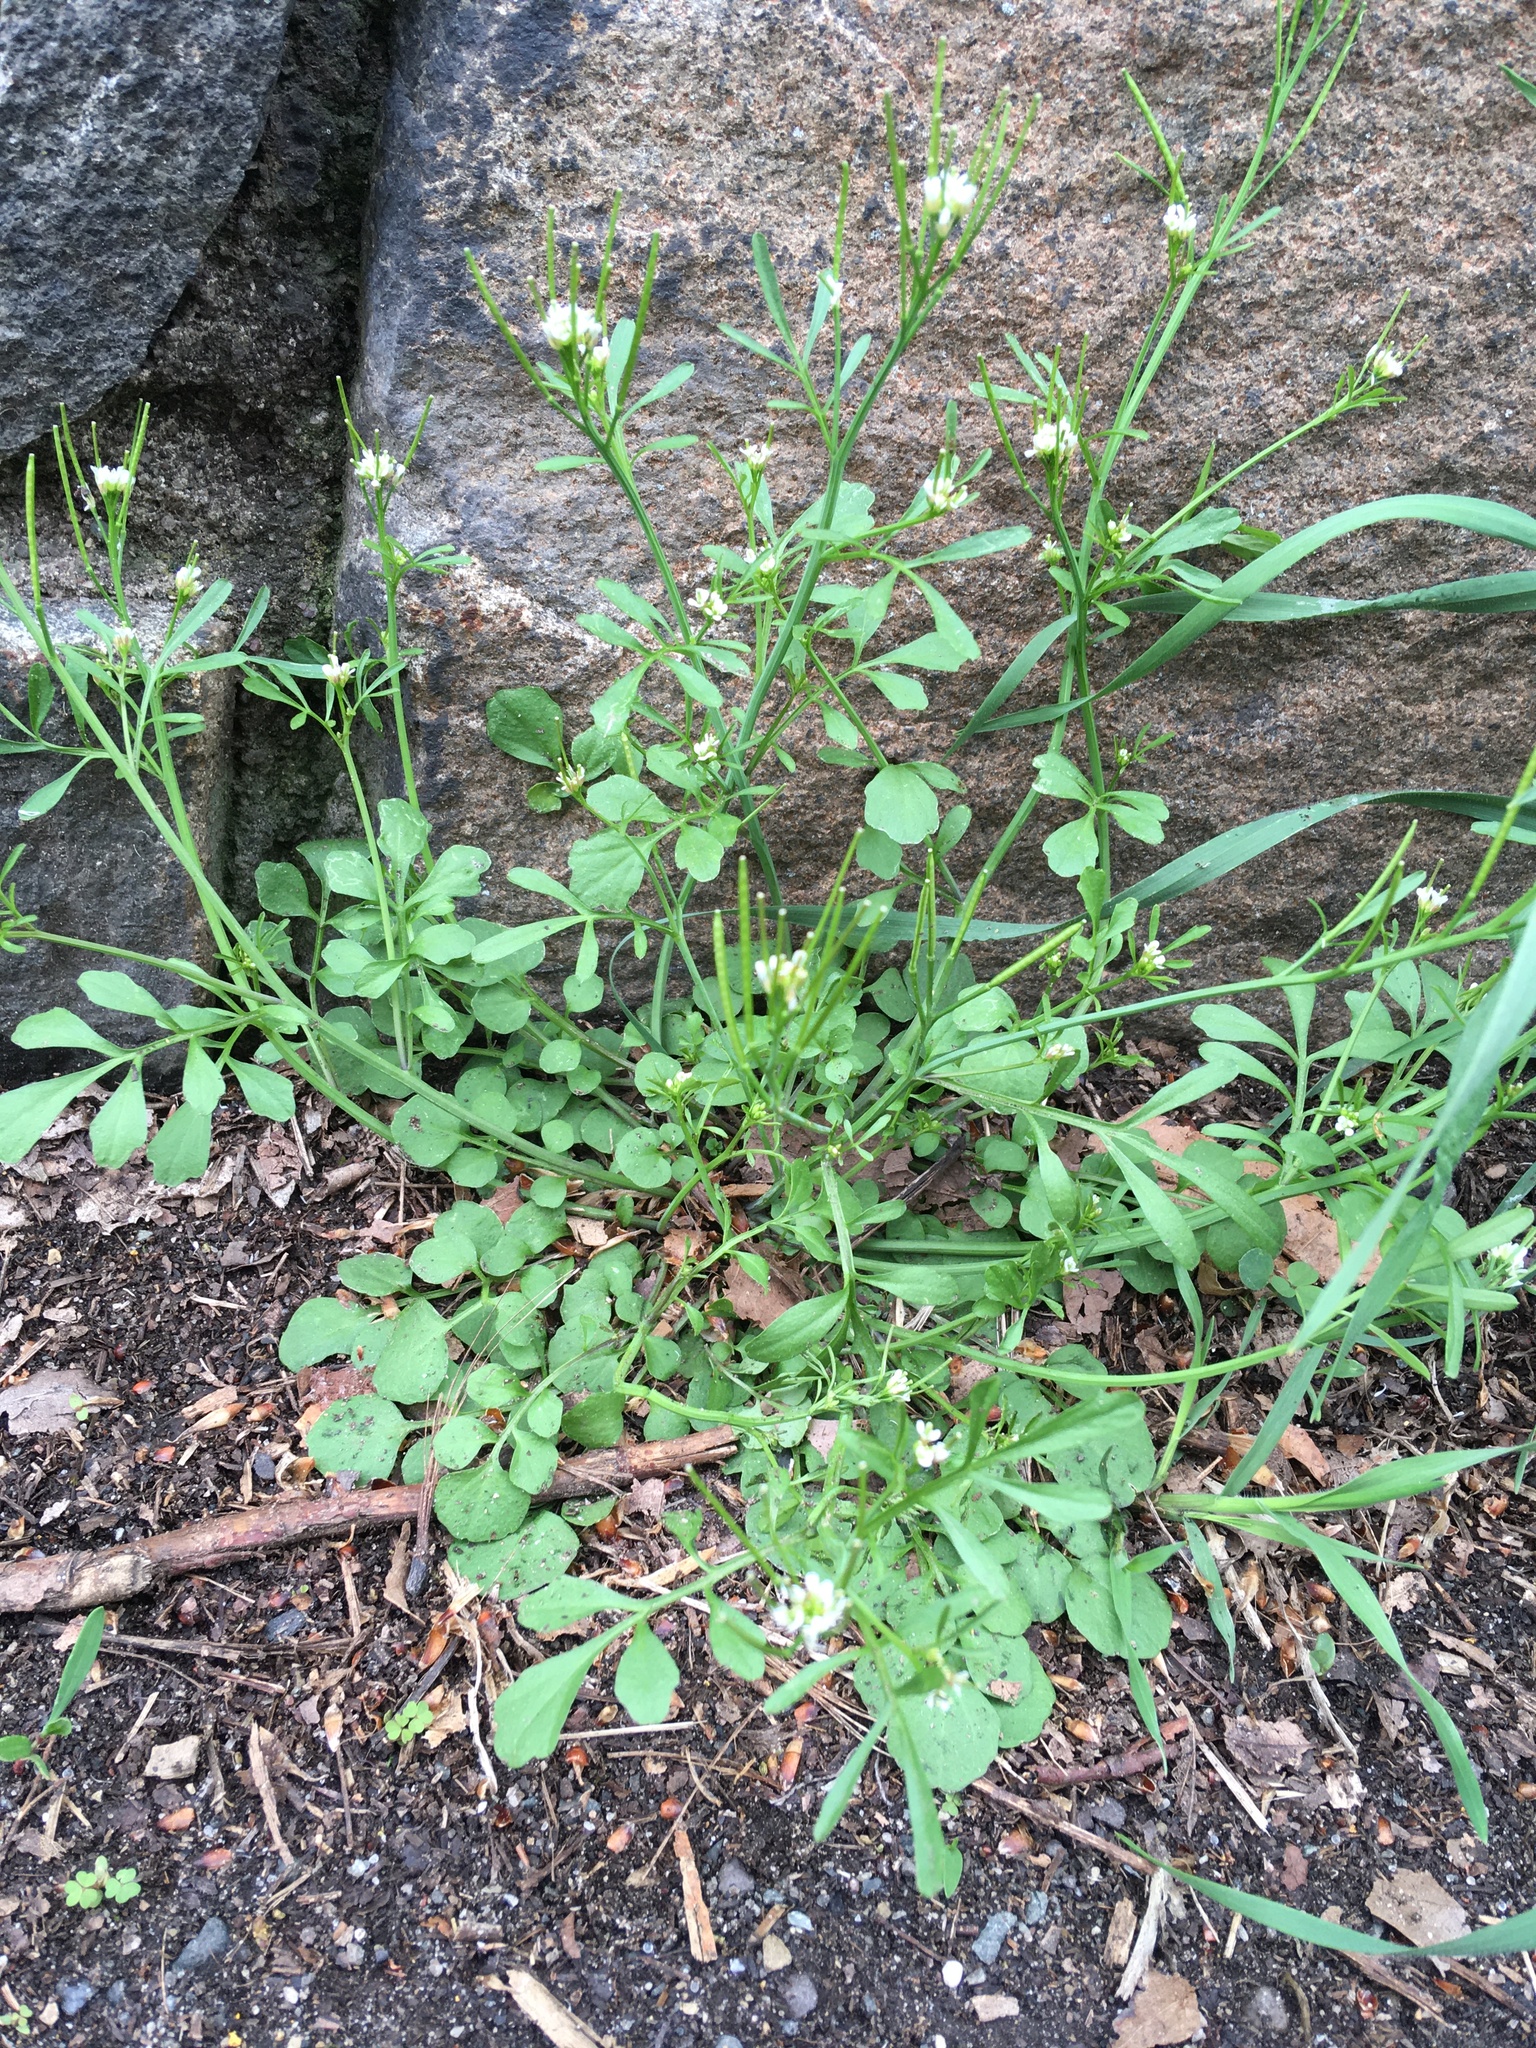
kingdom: Plantae
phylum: Tracheophyta
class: Magnoliopsida
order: Brassicales
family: Brassicaceae
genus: Cardamine
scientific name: Cardamine hirsuta
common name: Hairy bittercress
